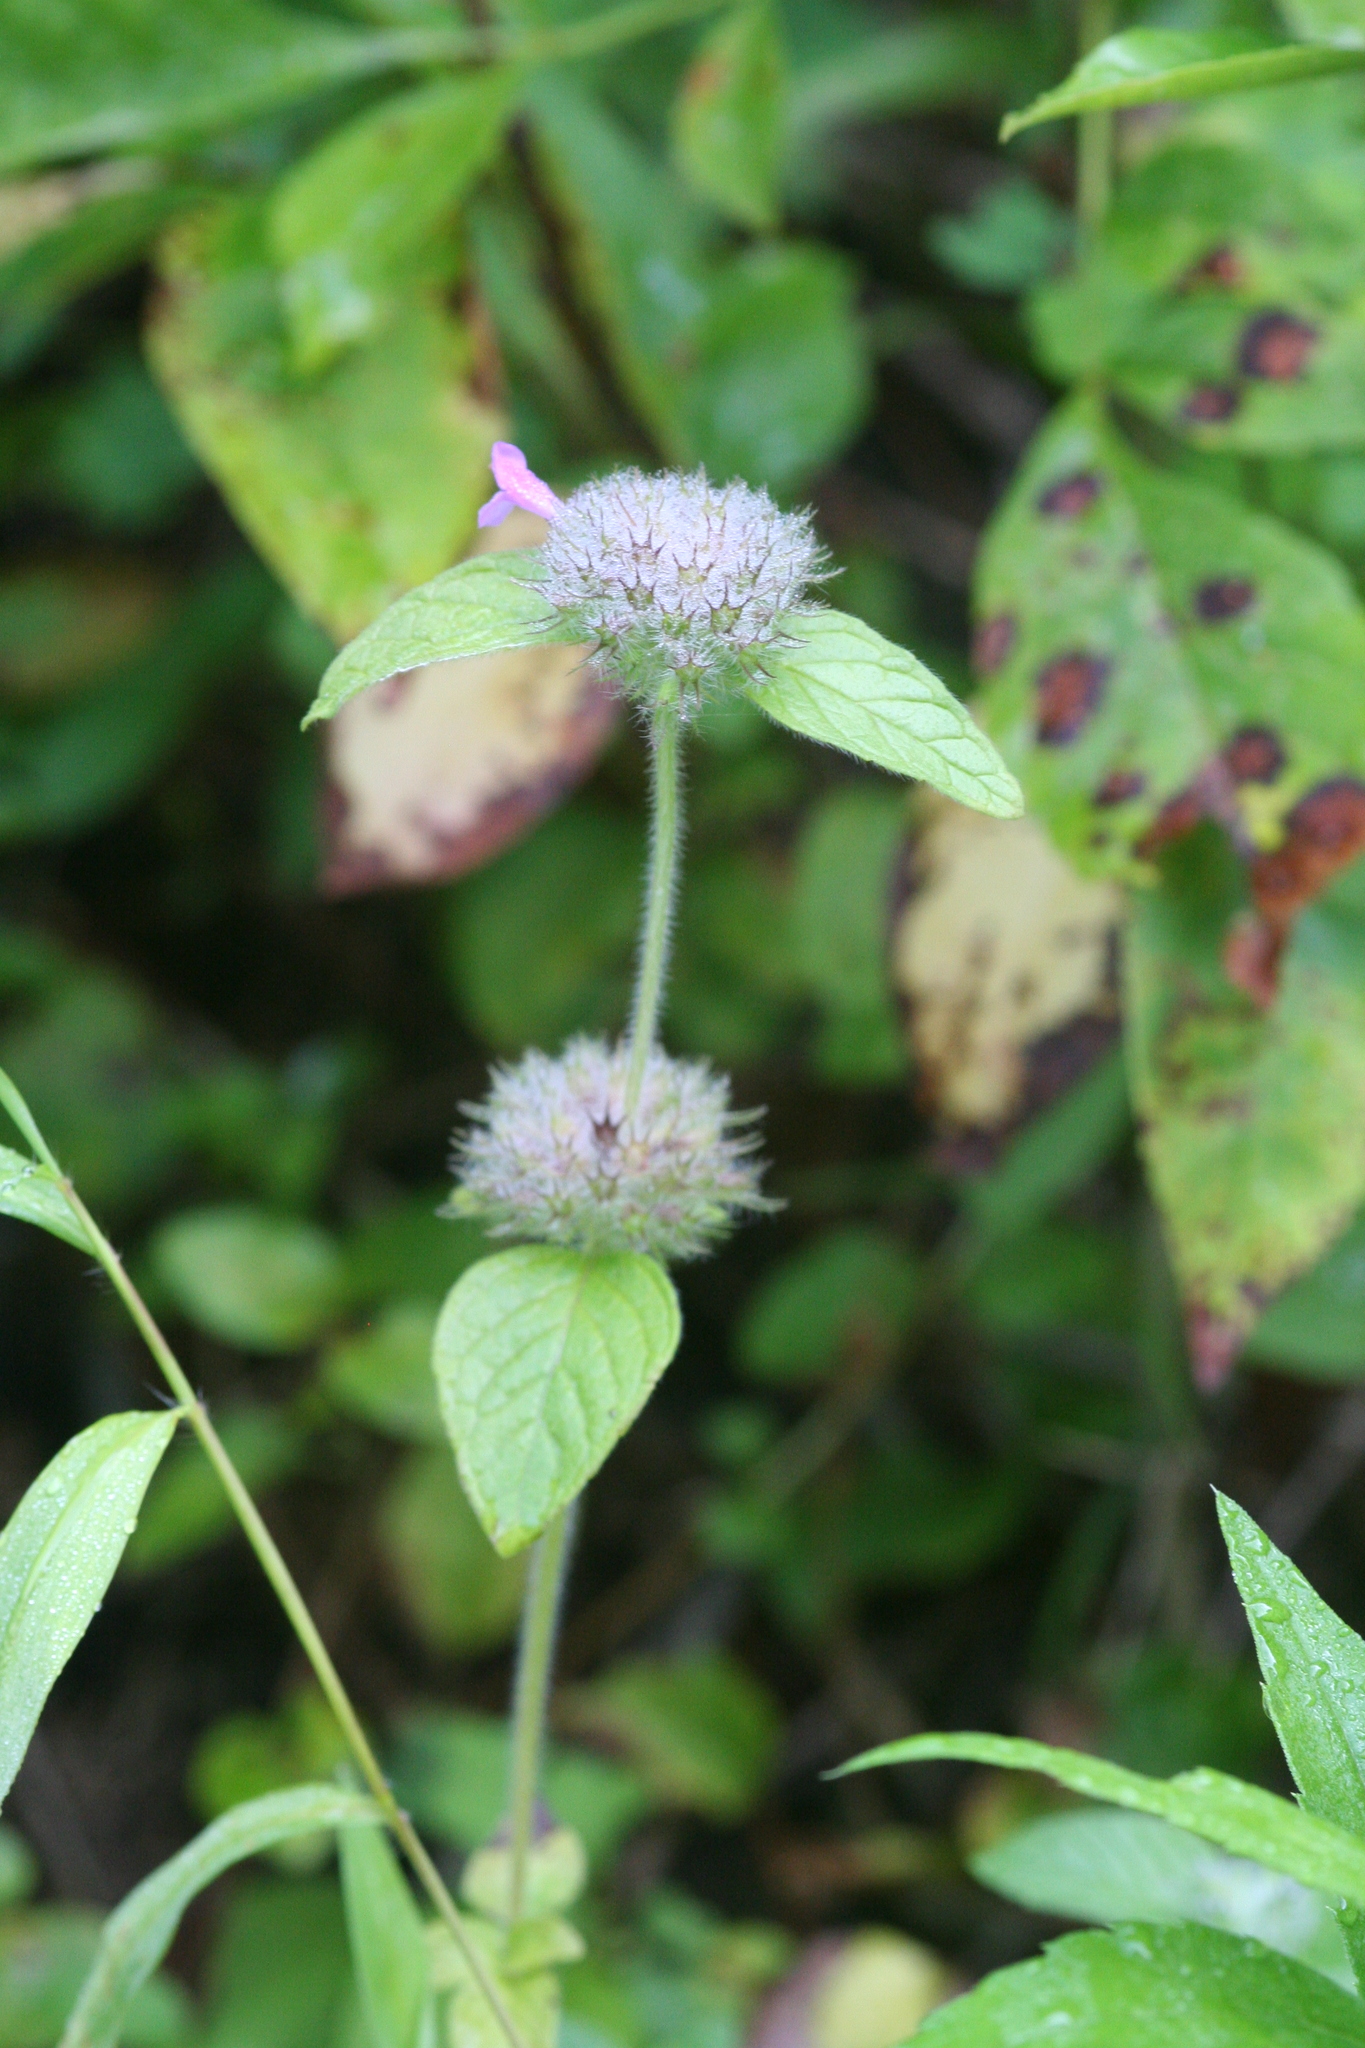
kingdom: Plantae
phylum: Tracheophyta
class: Magnoliopsida
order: Lamiales
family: Lamiaceae
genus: Clinopodium
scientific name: Clinopodium vulgare
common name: Wild basil
